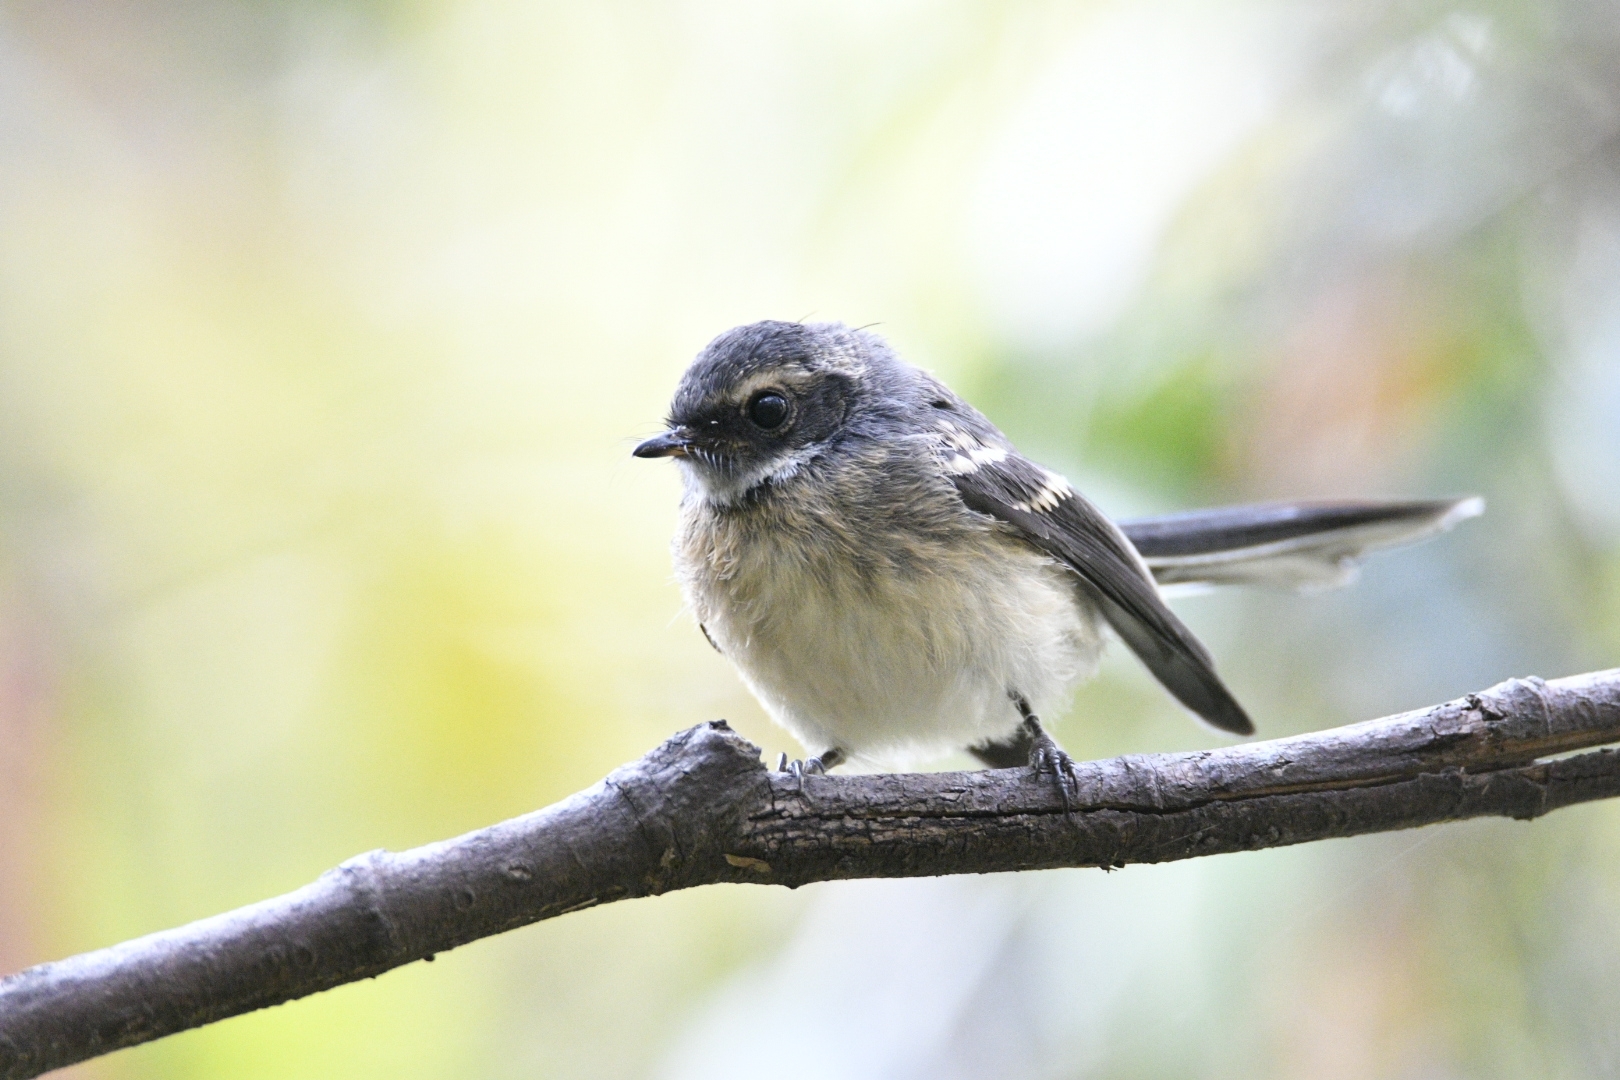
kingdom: Animalia
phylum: Chordata
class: Aves
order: Passeriformes
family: Rhipiduridae
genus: Rhipidura
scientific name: Rhipidura albiscapa
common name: Grey fantail
